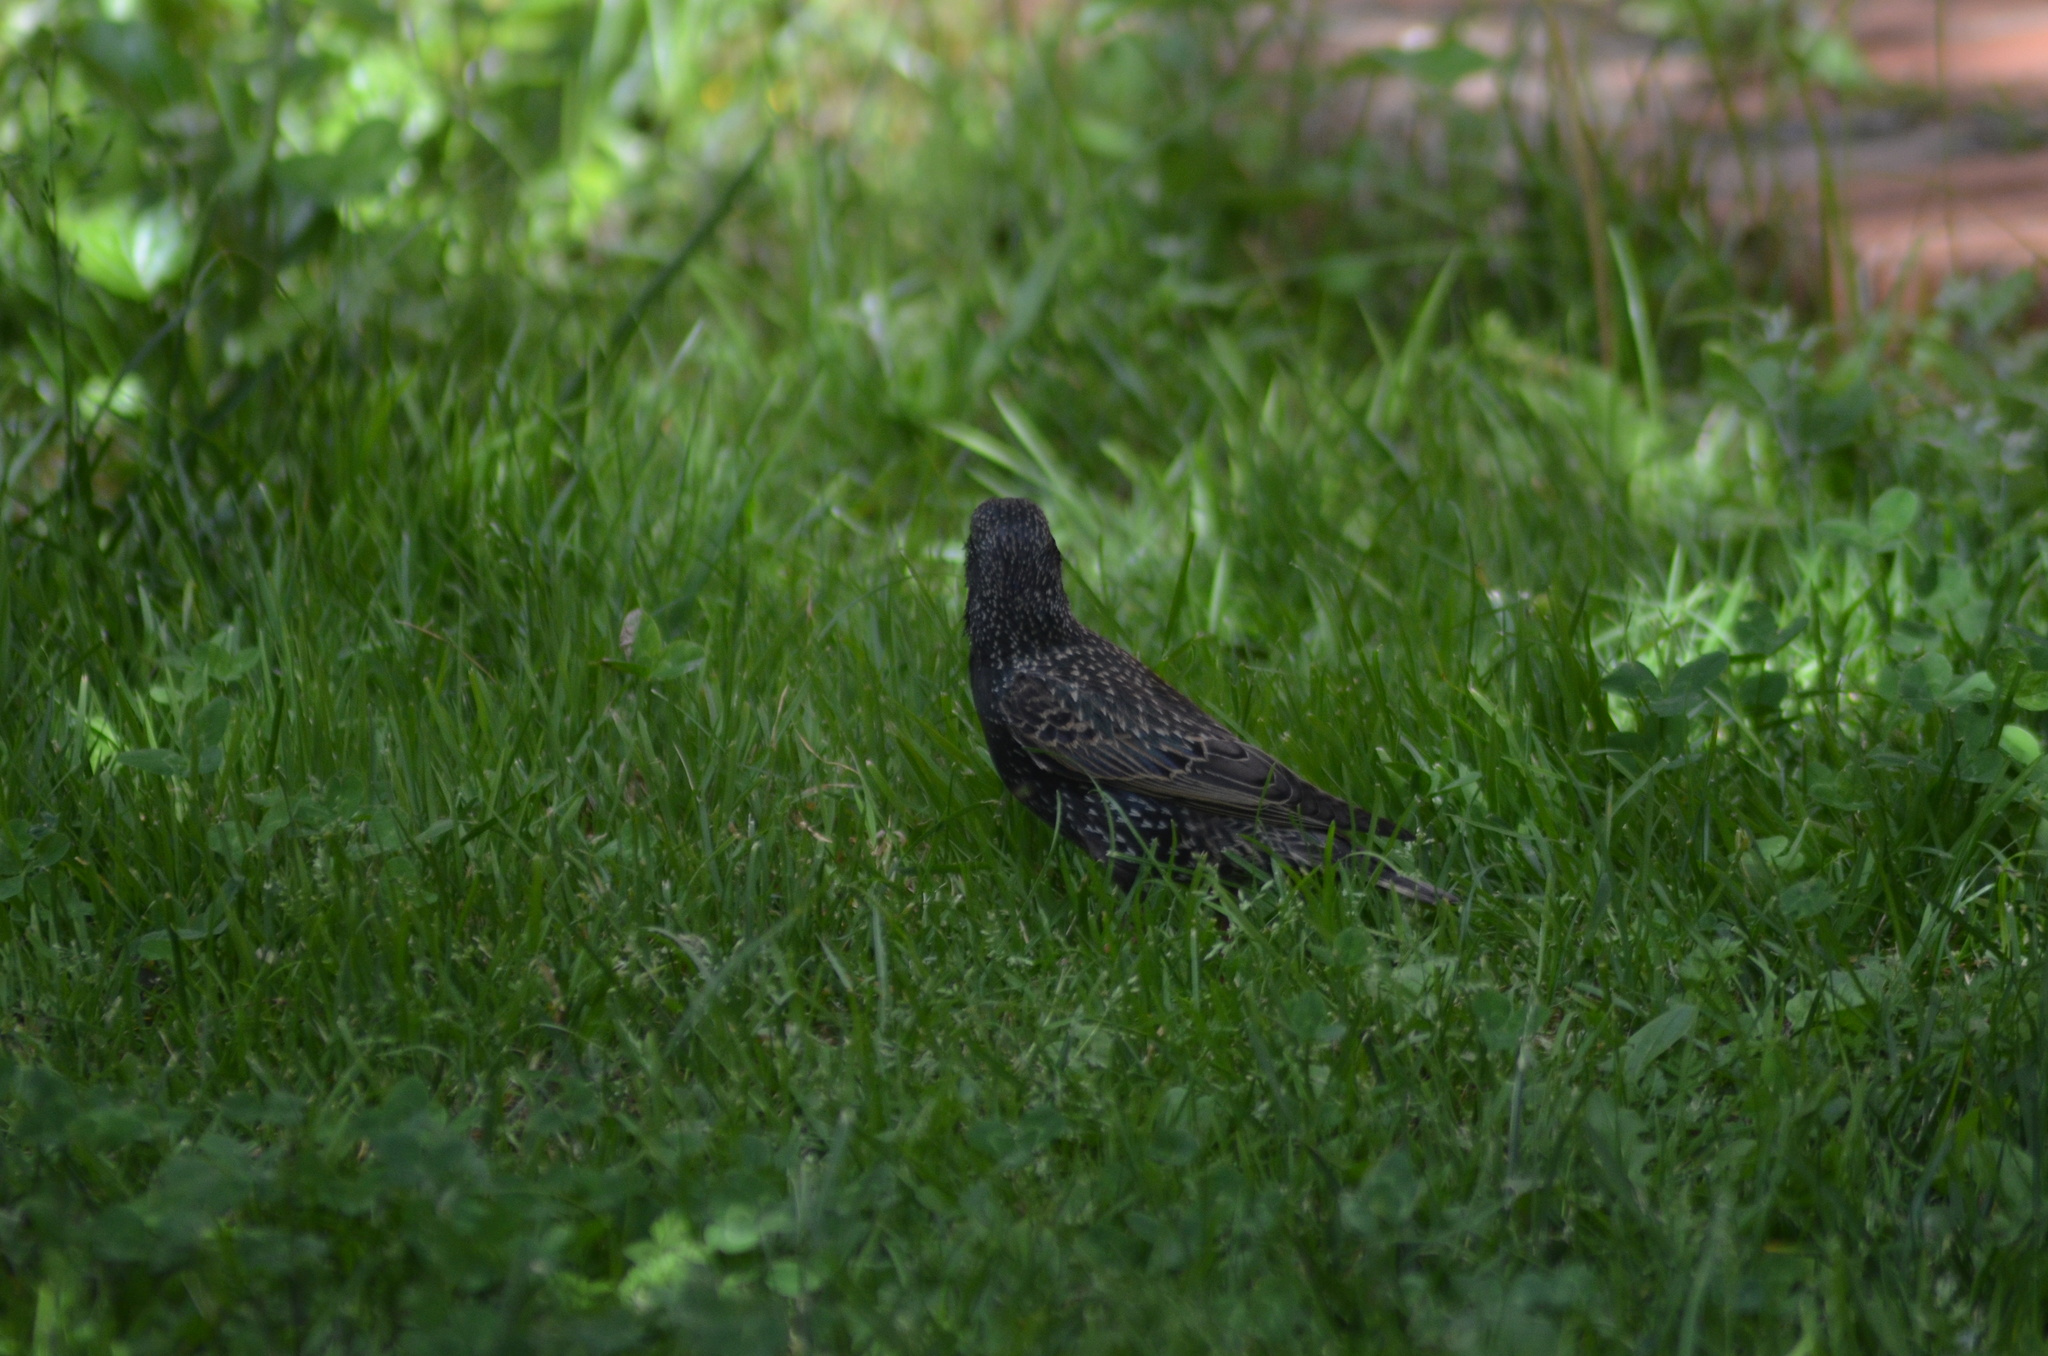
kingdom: Animalia
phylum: Chordata
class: Aves
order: Passeriformes
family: Sturnidae
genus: Sturnus
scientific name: Sturnus vulgaris
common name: Common starling
